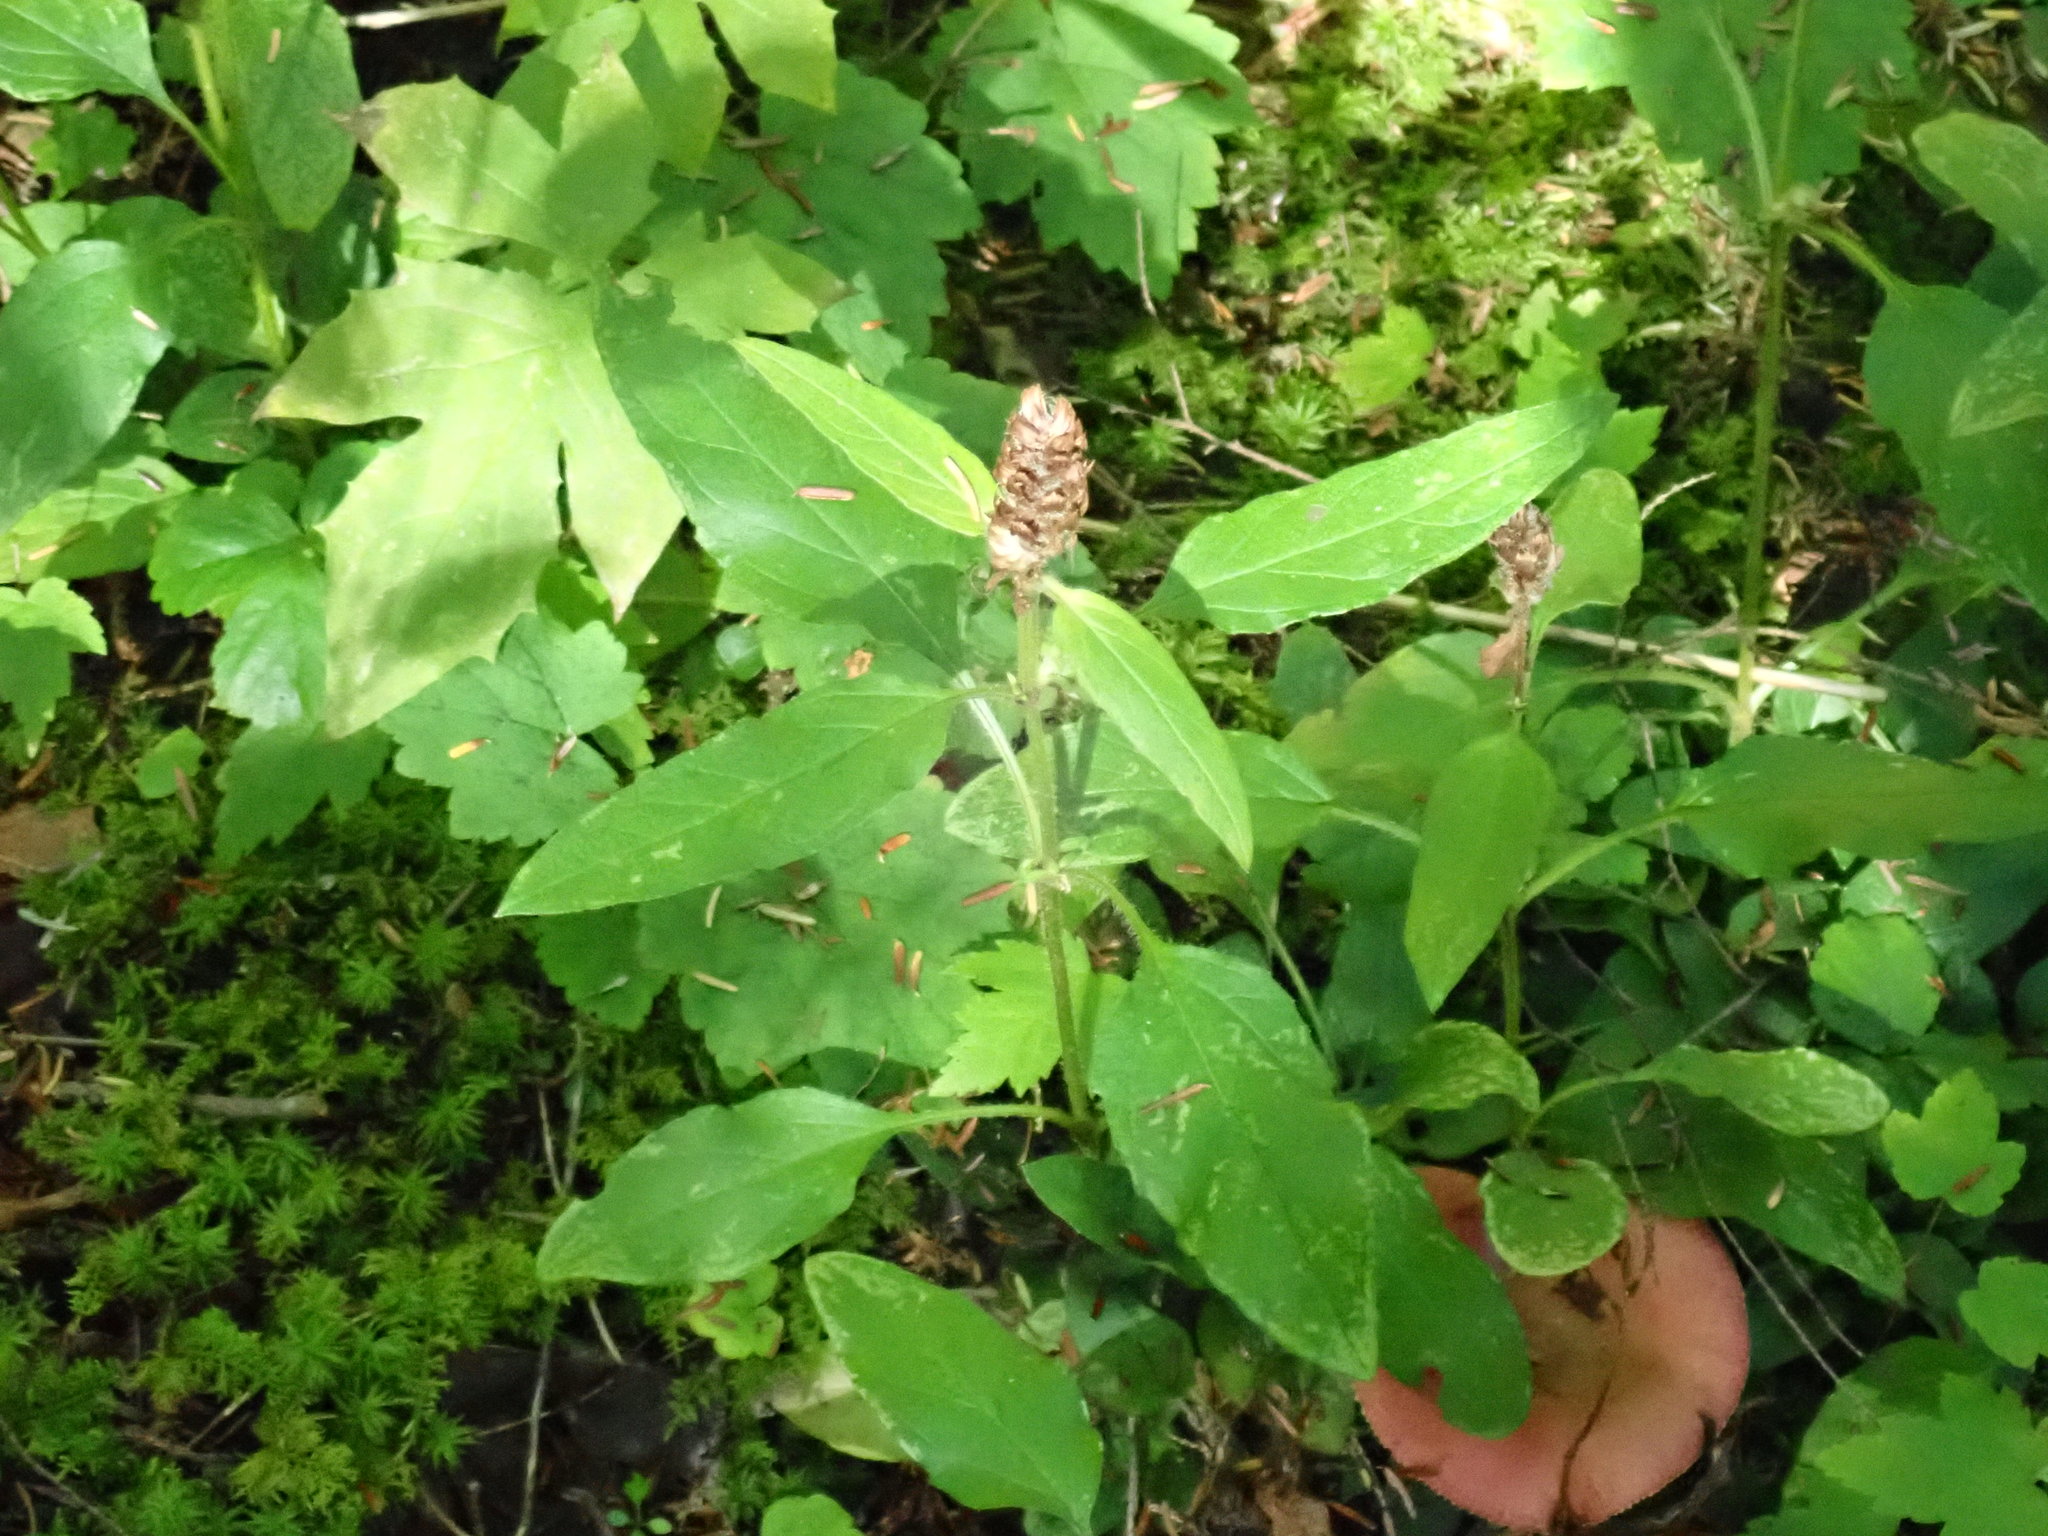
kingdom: Plantae
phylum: Tracheophyta
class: Magnoliopsida
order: Lamiales
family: Lamiaceae
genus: Prunella
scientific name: Prunella vulgaris
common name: Heal-all
